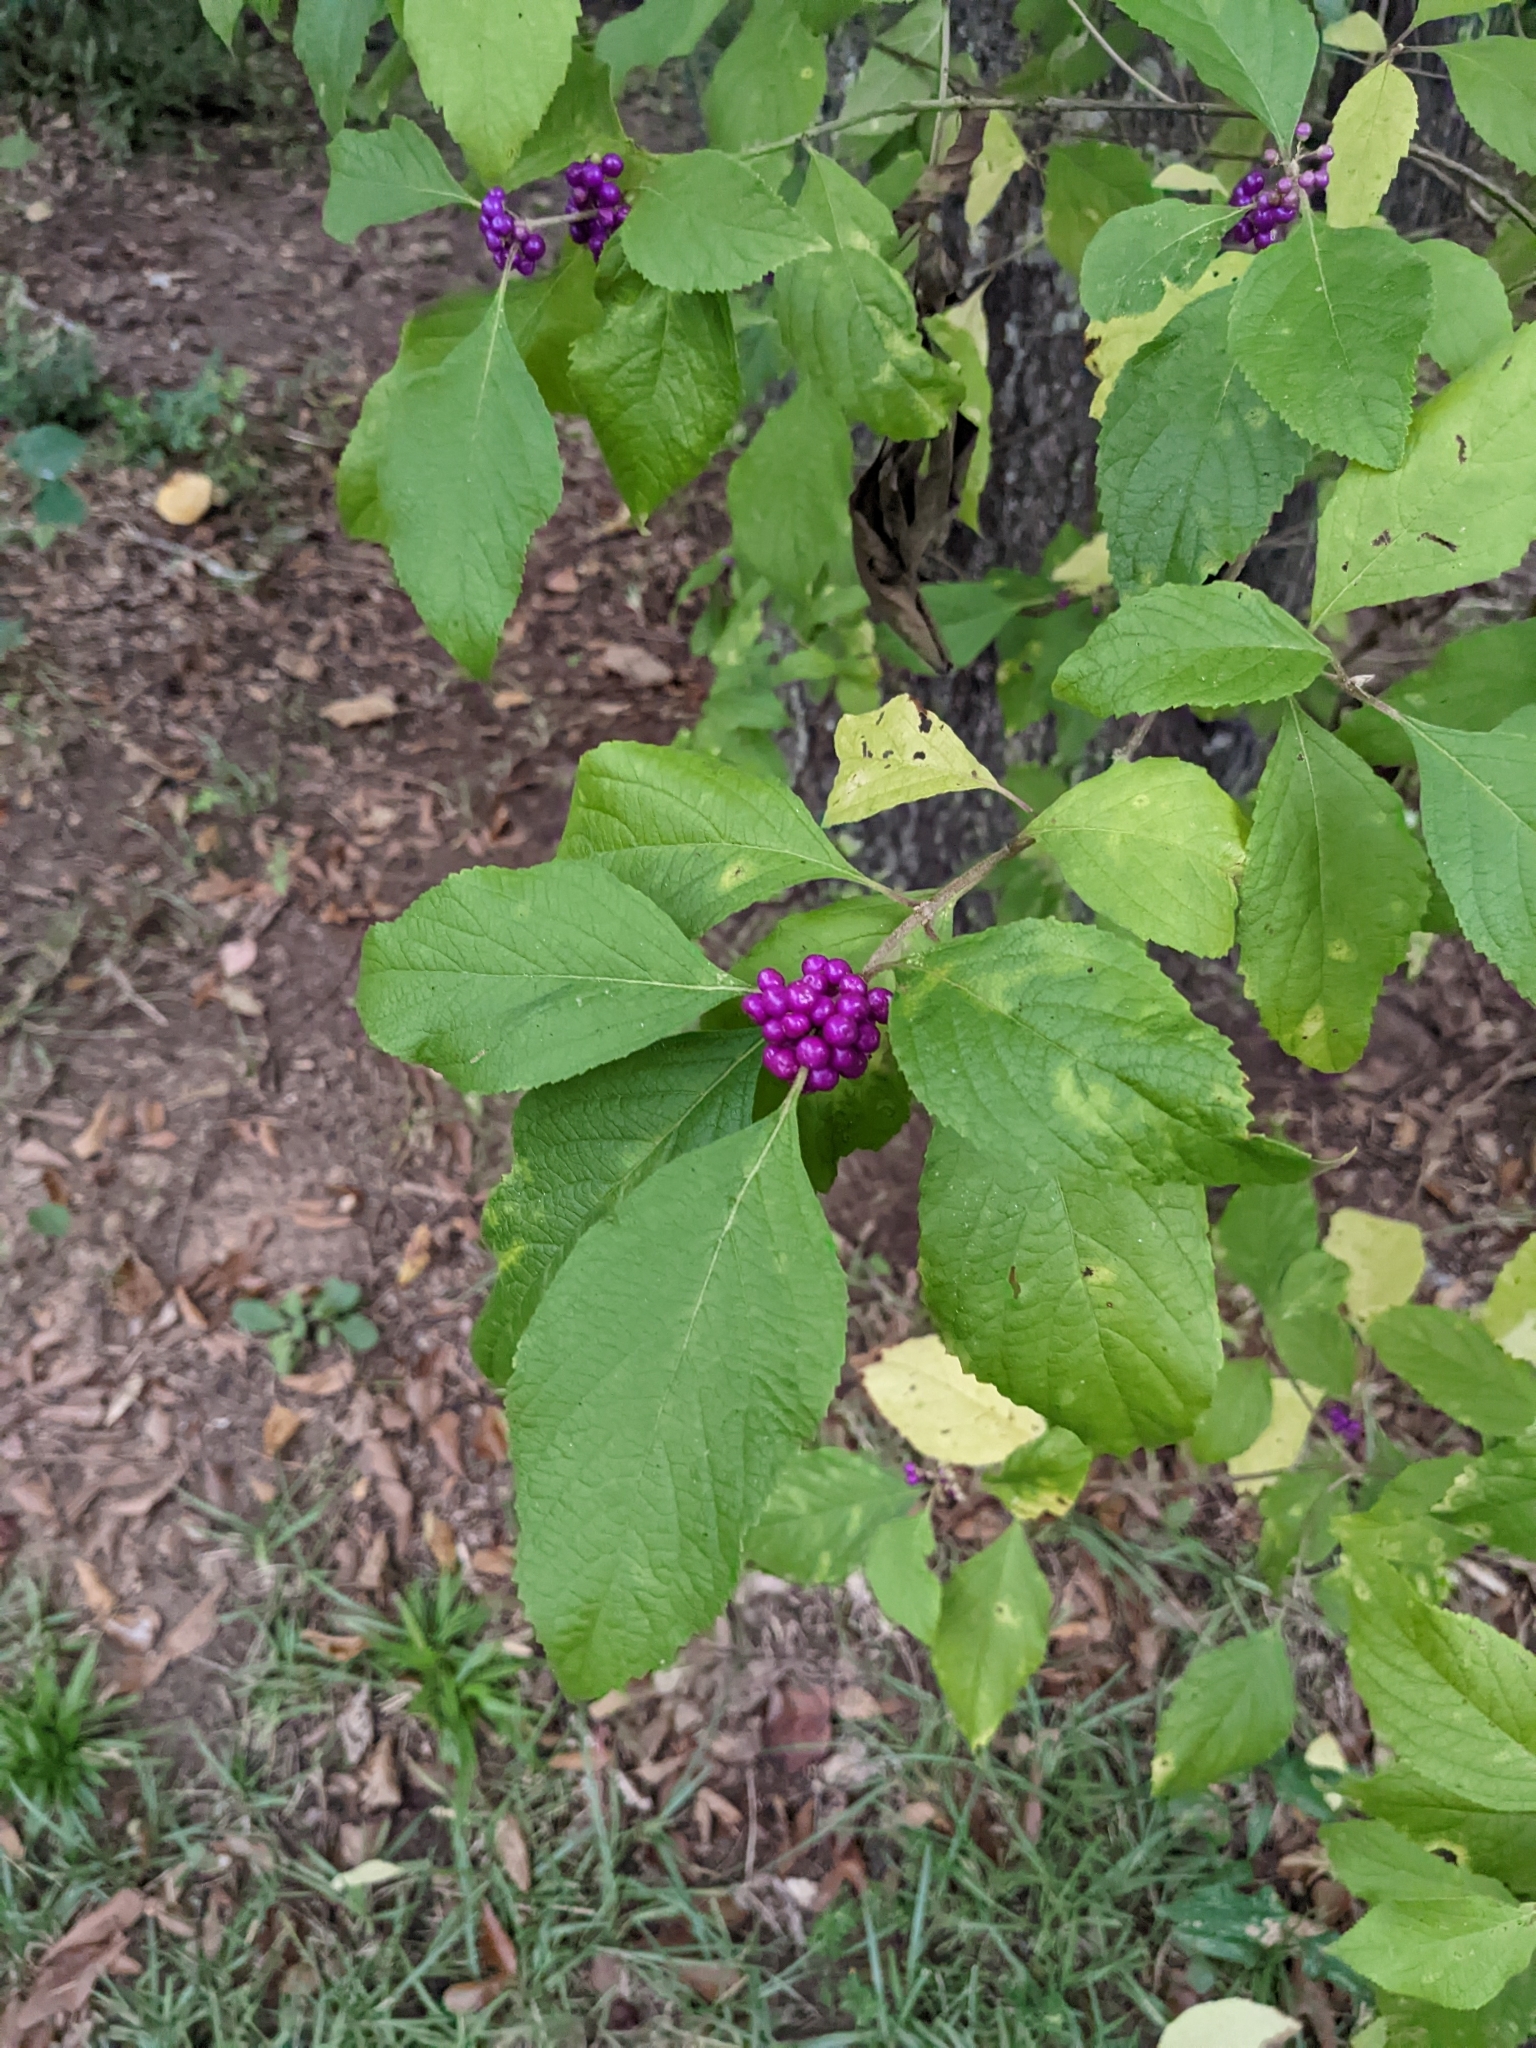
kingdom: Plantae
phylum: Tracheophyta
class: Magnoliopsida
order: Lamiales
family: Lamiaceae
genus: Callicarpa
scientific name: Callicarpa americana
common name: American beautyberry
